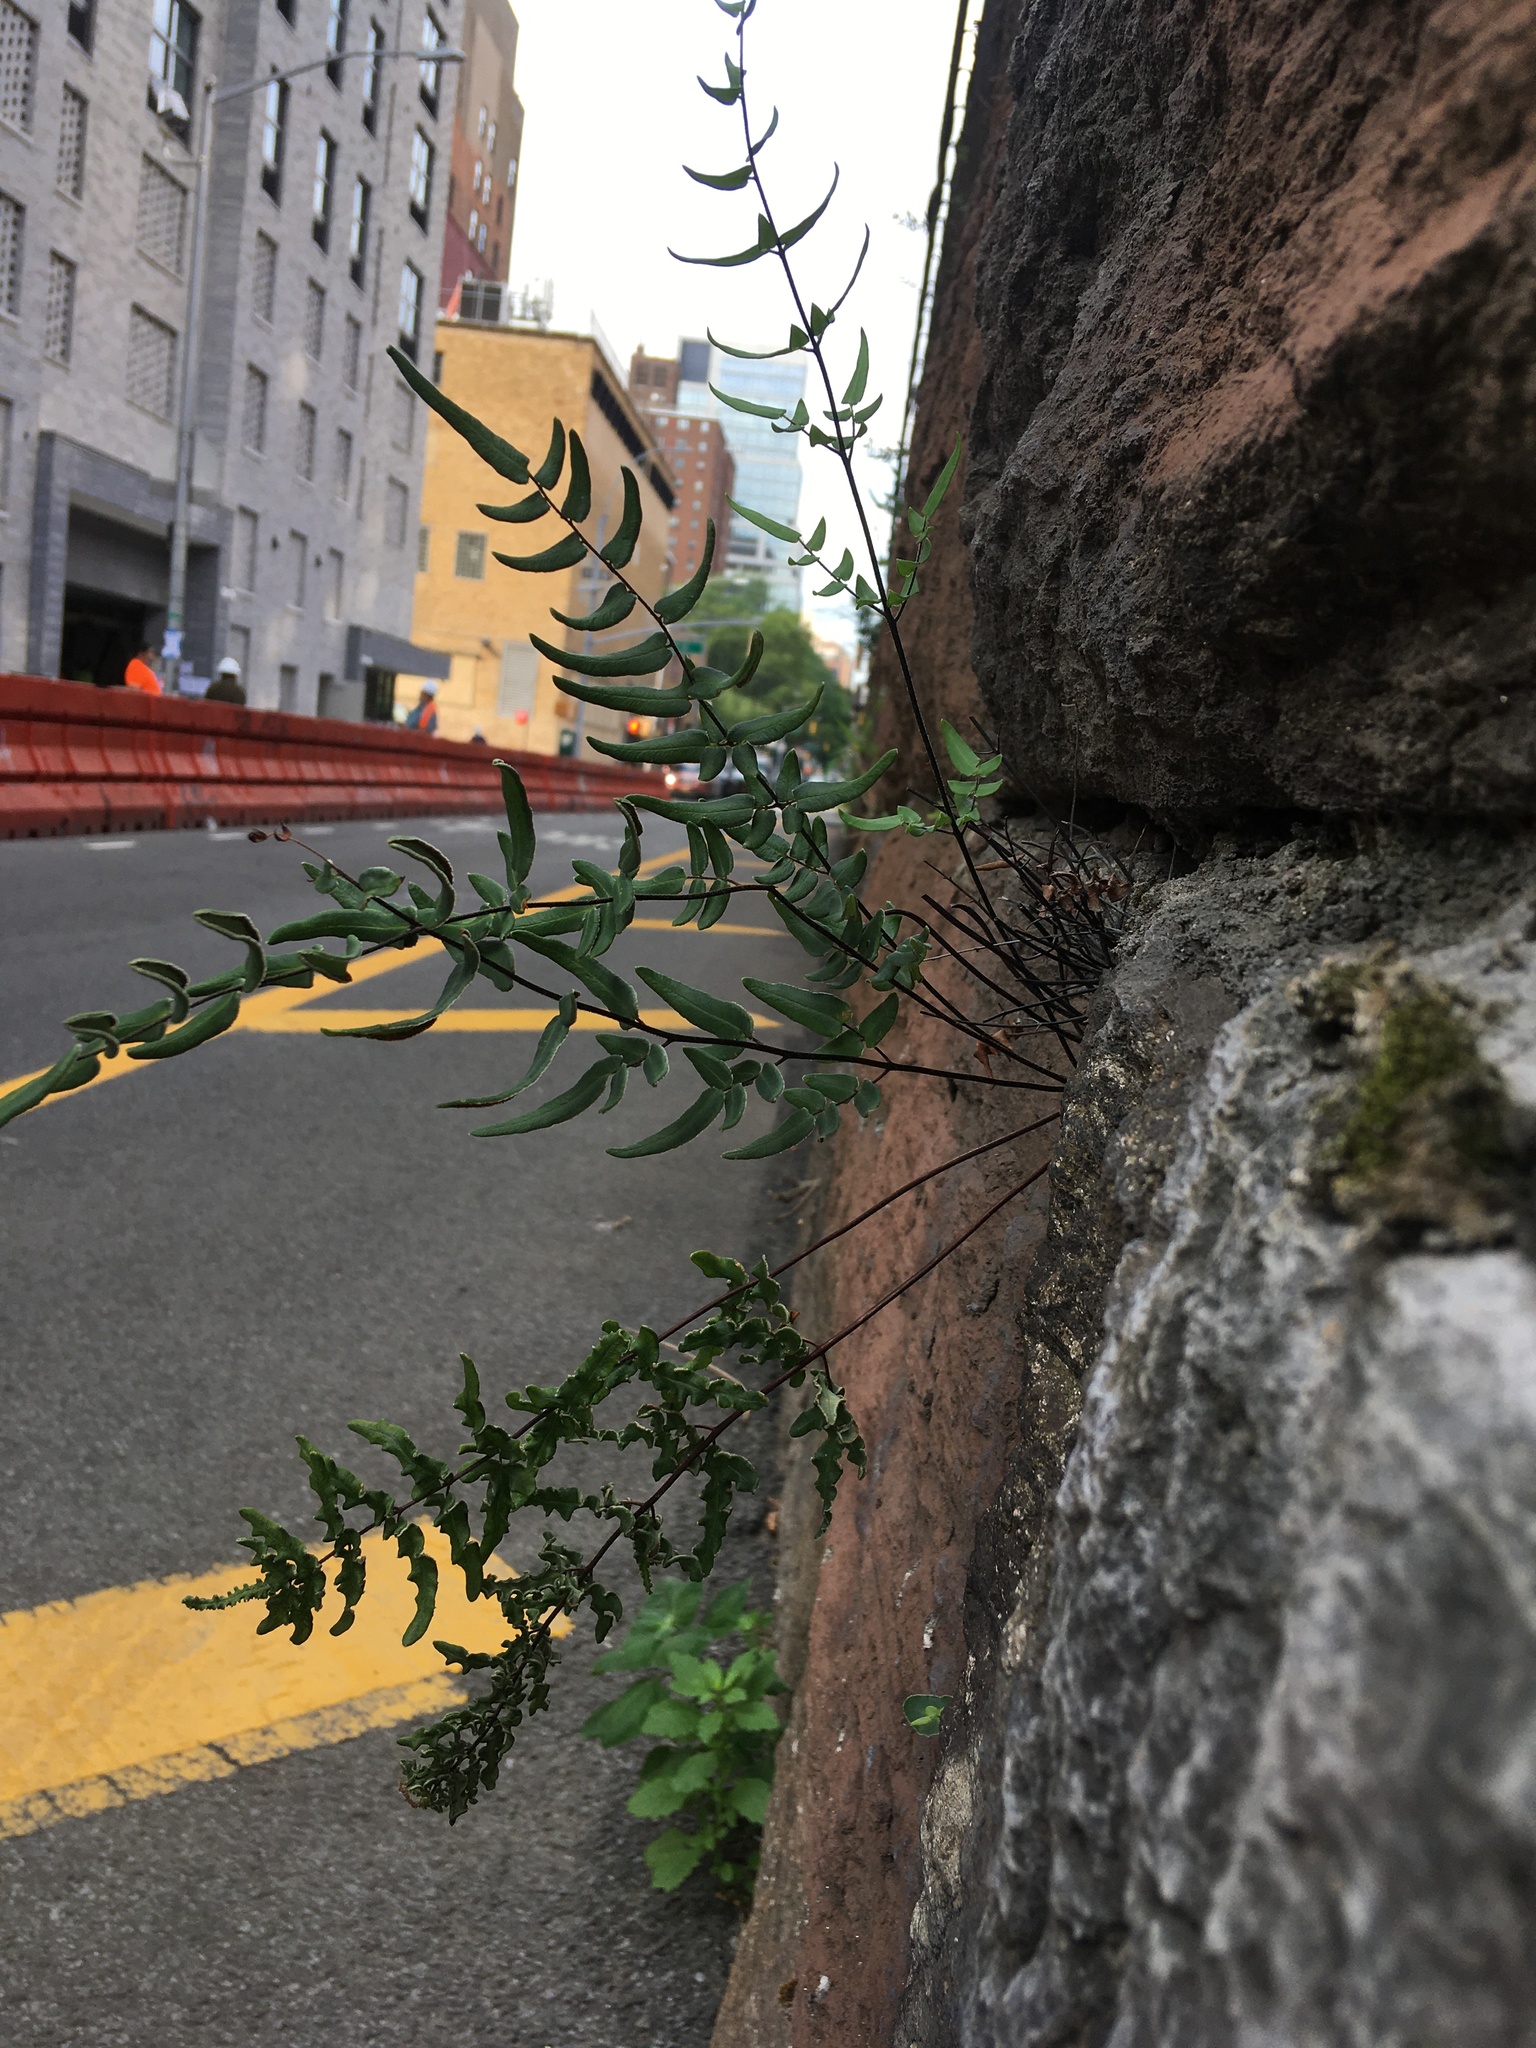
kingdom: Plantae
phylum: Tracheophyta
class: Polypodiopsida
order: Polypodiales
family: Pteridaceae
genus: Pellaea
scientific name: Pellaea atropurpurea
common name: Hairy cliffbrake
